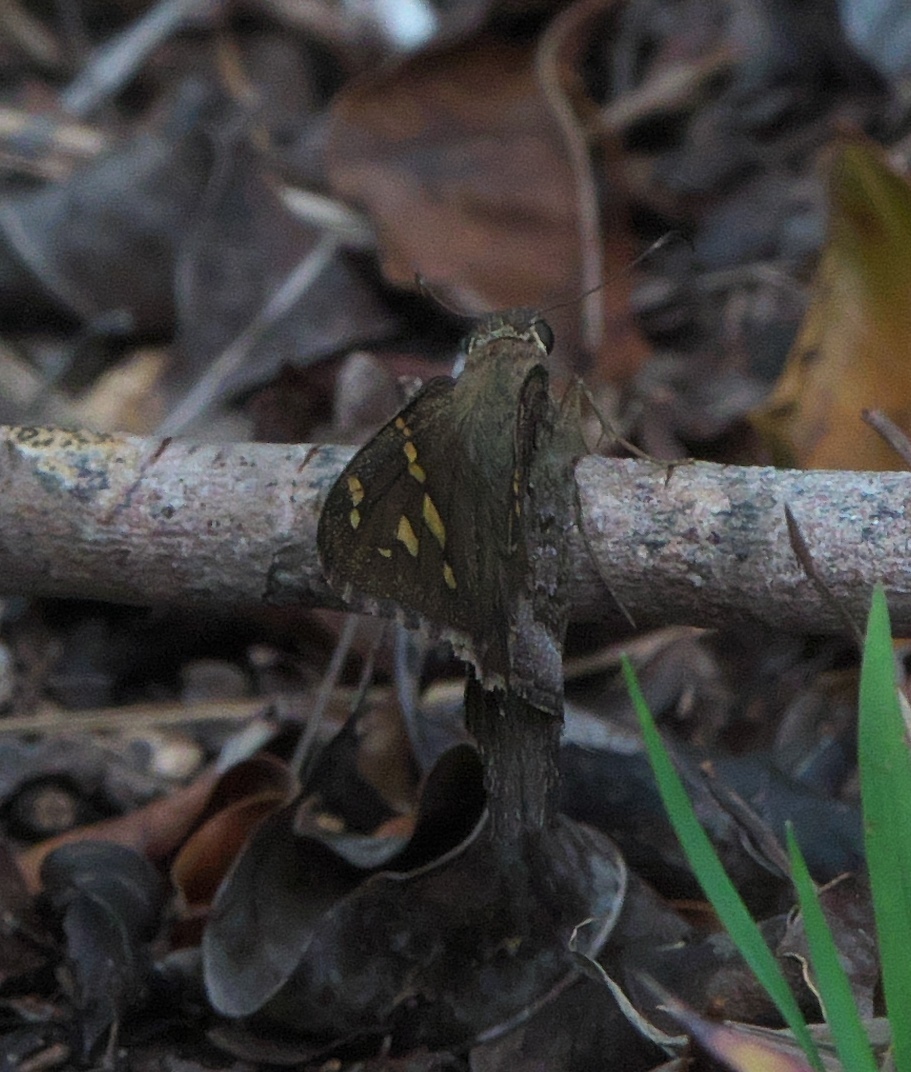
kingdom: Animalia
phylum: Arthropoda
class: Insecta
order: Lepidoptera
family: Hesperiidae
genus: Thorybes
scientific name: Thorybes
